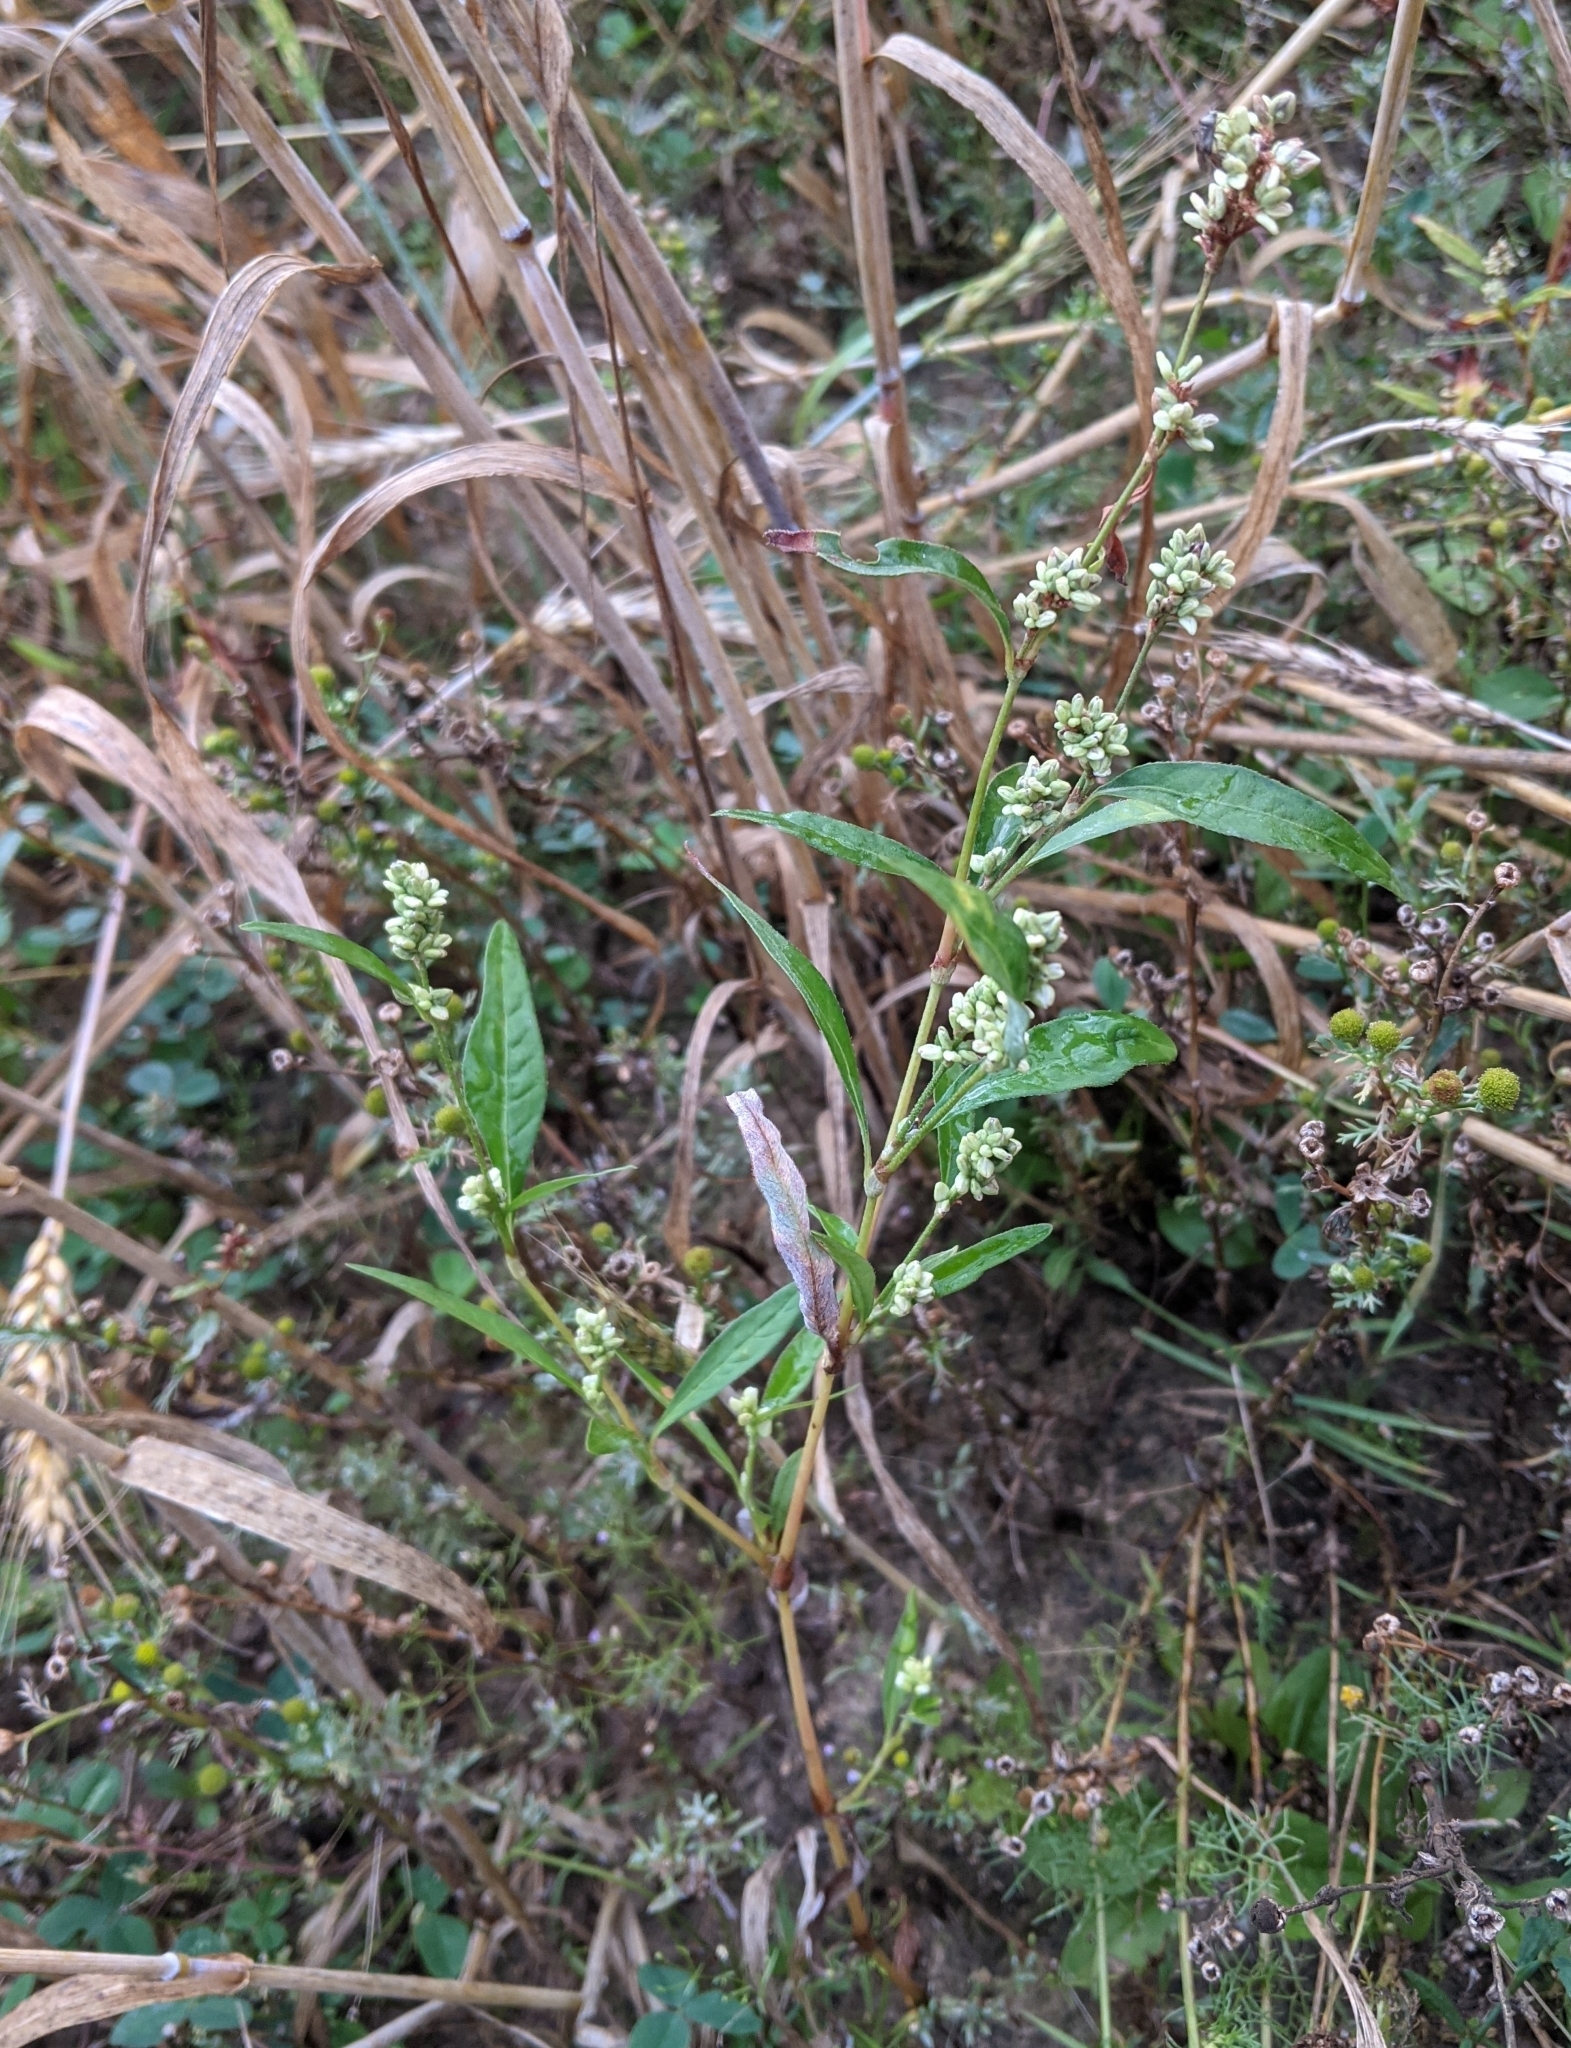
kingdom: Plantae
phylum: Tracheophyta
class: Magnoliopsida
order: Caryophyllales
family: Polygonaceae
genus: Persicaria
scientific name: Persicaria lapathifolia
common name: Curlytop knotweed
